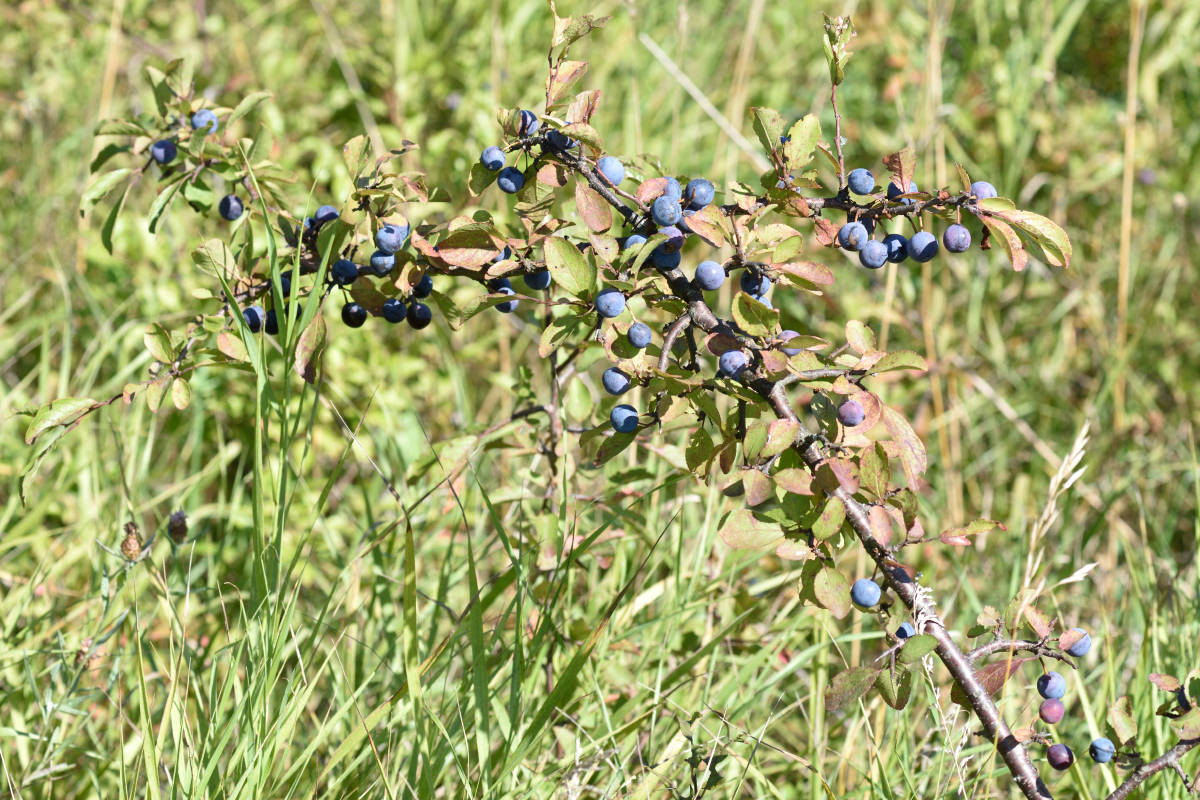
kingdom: Plantae
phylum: Tracheophyta
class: Magnoliopsida
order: Rosales
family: Rosaceae
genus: Prunus
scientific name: Prunus spinosa
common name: Blackthorn
